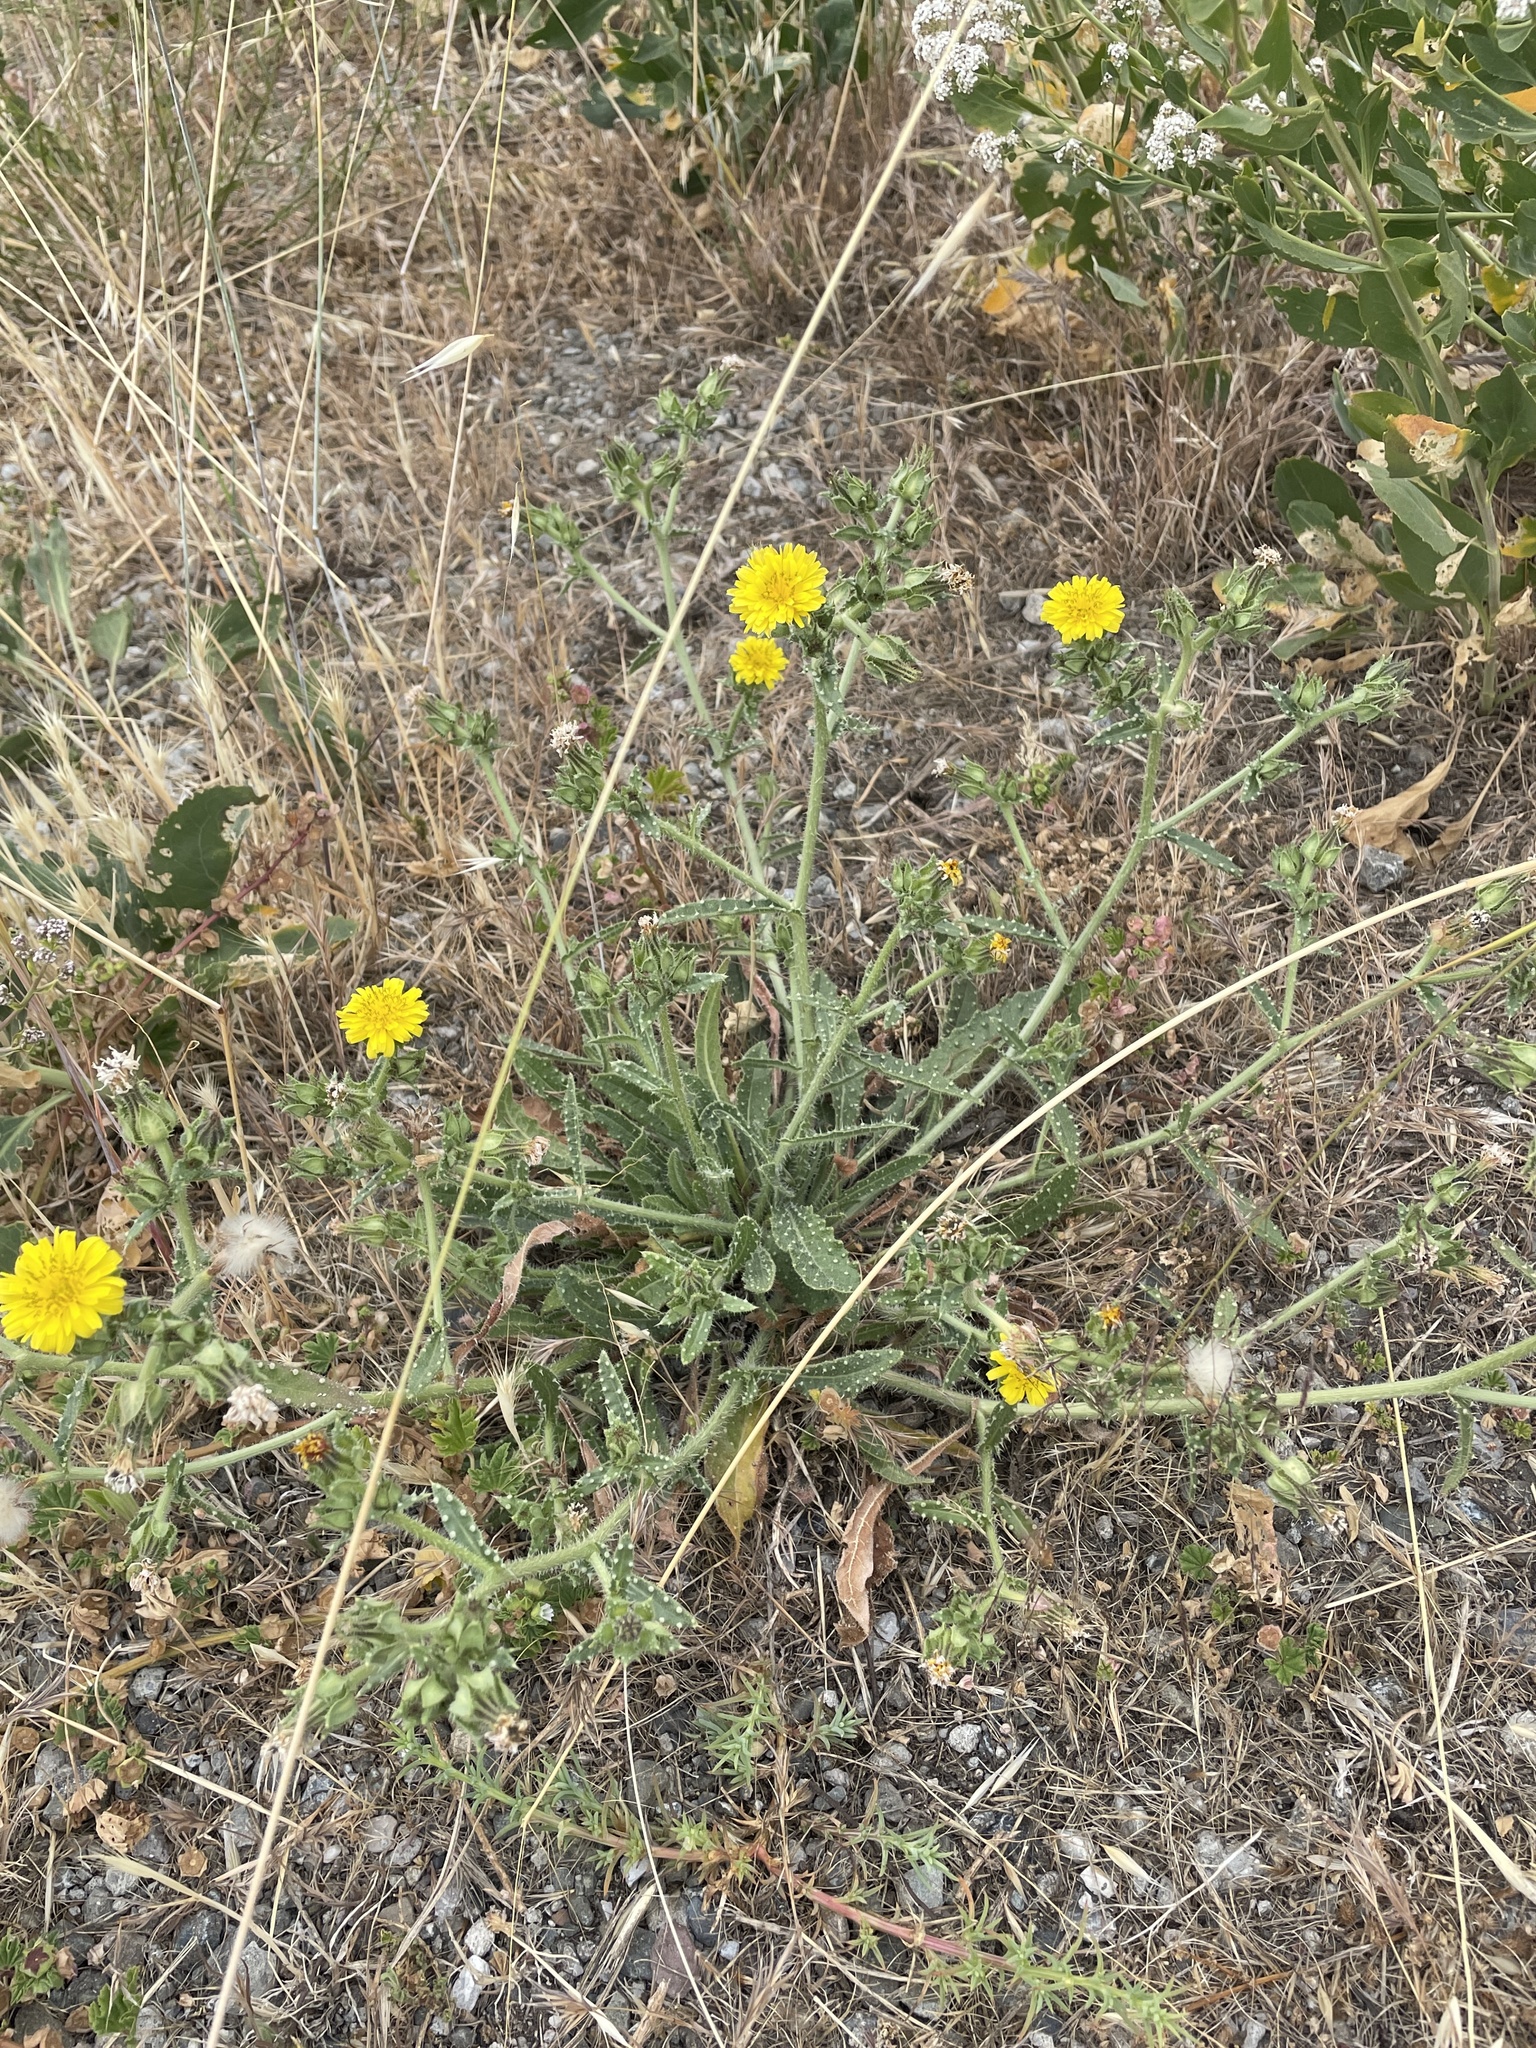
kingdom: Plantae
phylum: Tracheophyta
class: Magnoliopsida
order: Asterales
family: Asteraceae
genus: Helminthotheca
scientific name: Helminthotheca echioides
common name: Ox-tongue
